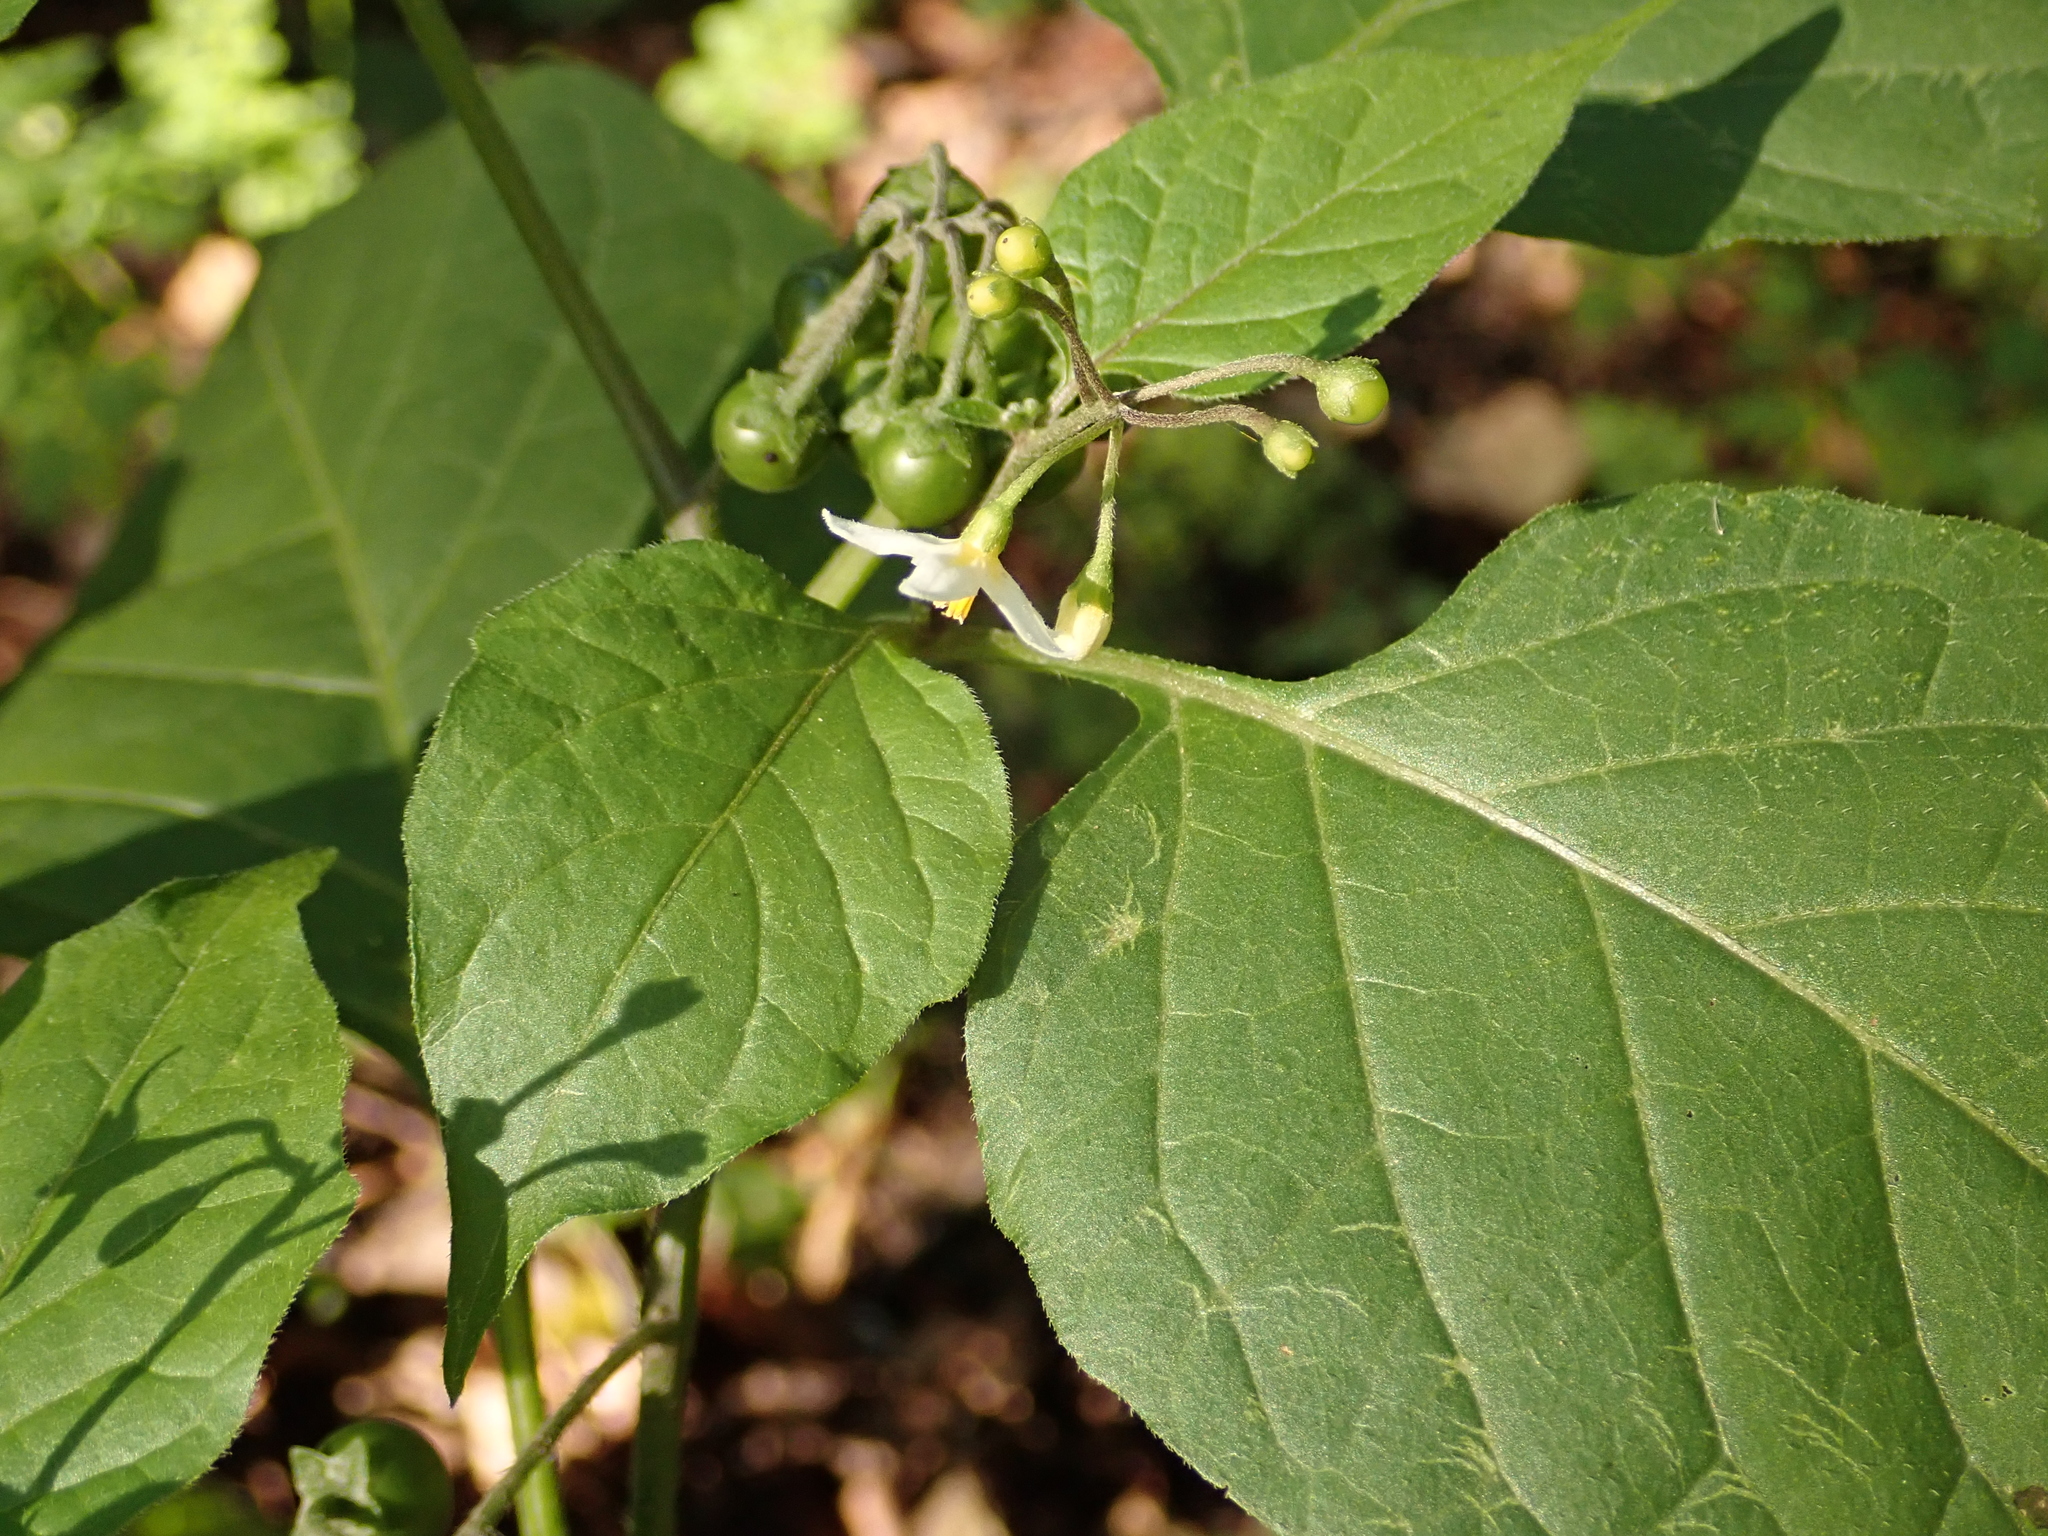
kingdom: Plantae
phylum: Tracheophyta
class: Magnoliopsida
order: Solanales
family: Solanaceae
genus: Solanum
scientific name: Solanum nigrum
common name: Black nightshade
